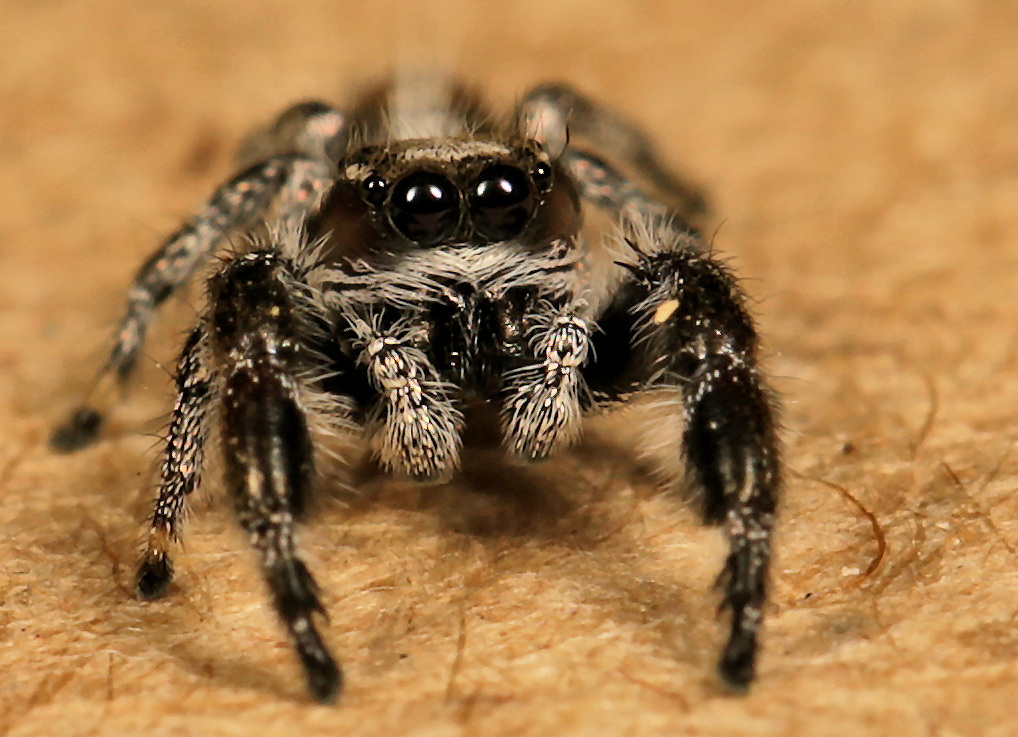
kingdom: Animalia
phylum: Arthropoda
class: Arachnida
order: Araneae
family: Salticidae
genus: Thyene
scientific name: Thyene thyenioides
